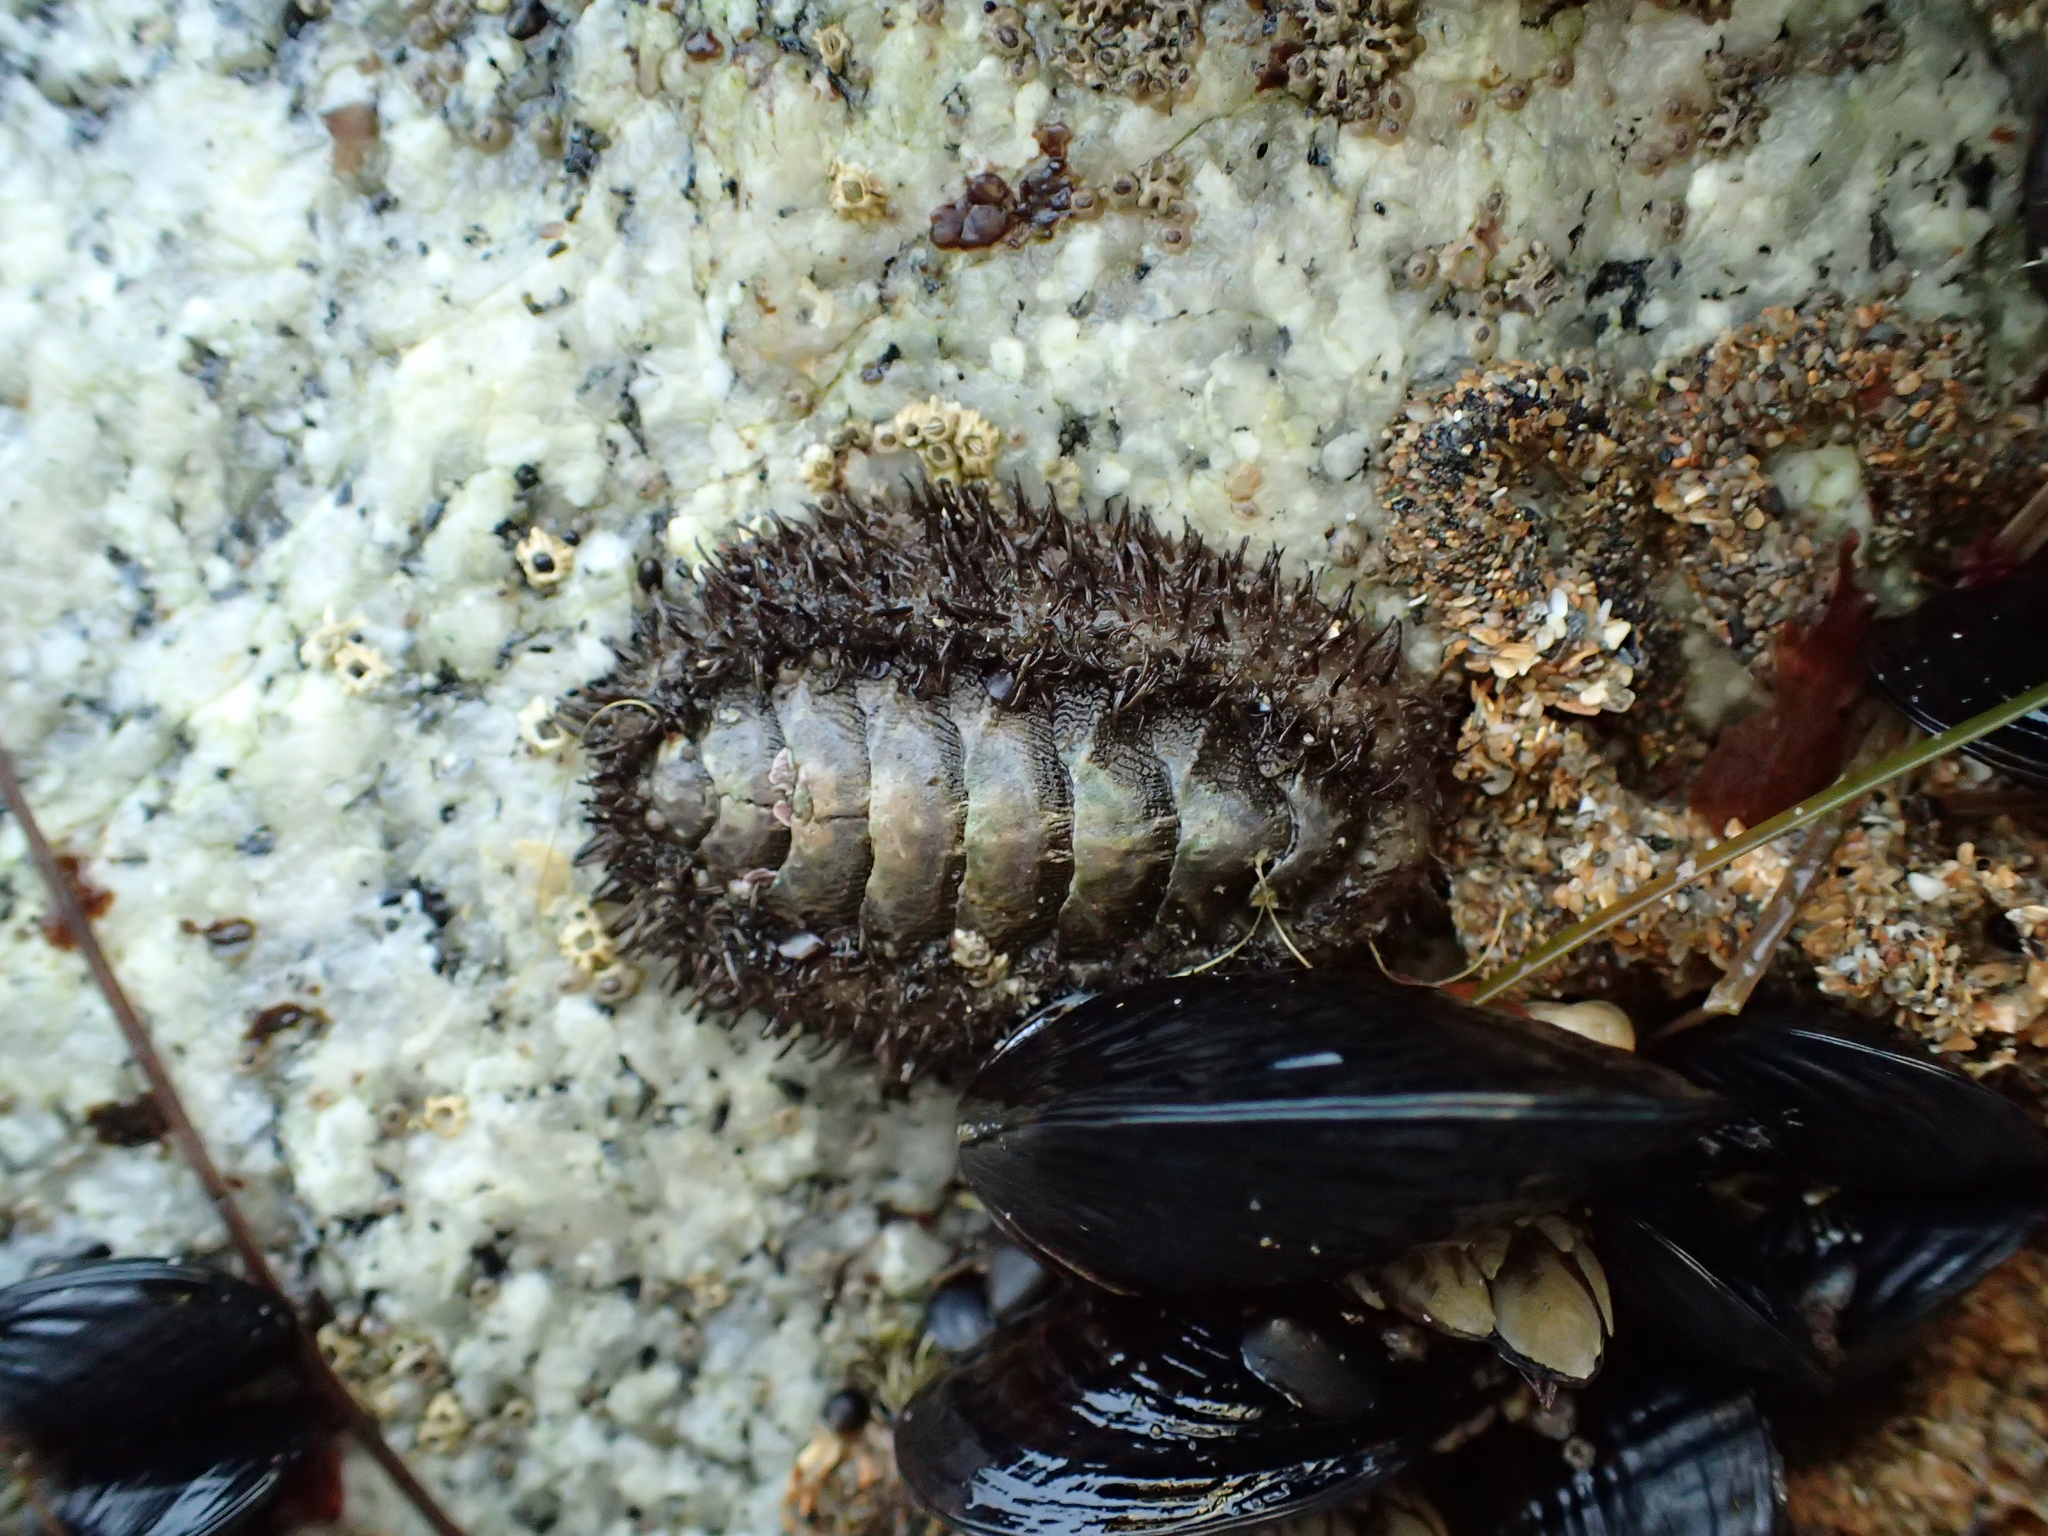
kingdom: Animalia
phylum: Mollusca
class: Polyplacophora
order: Chitonida
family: Mopaliidae
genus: Mopalia
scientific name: Mopalia muscosa
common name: Mossy chiton
